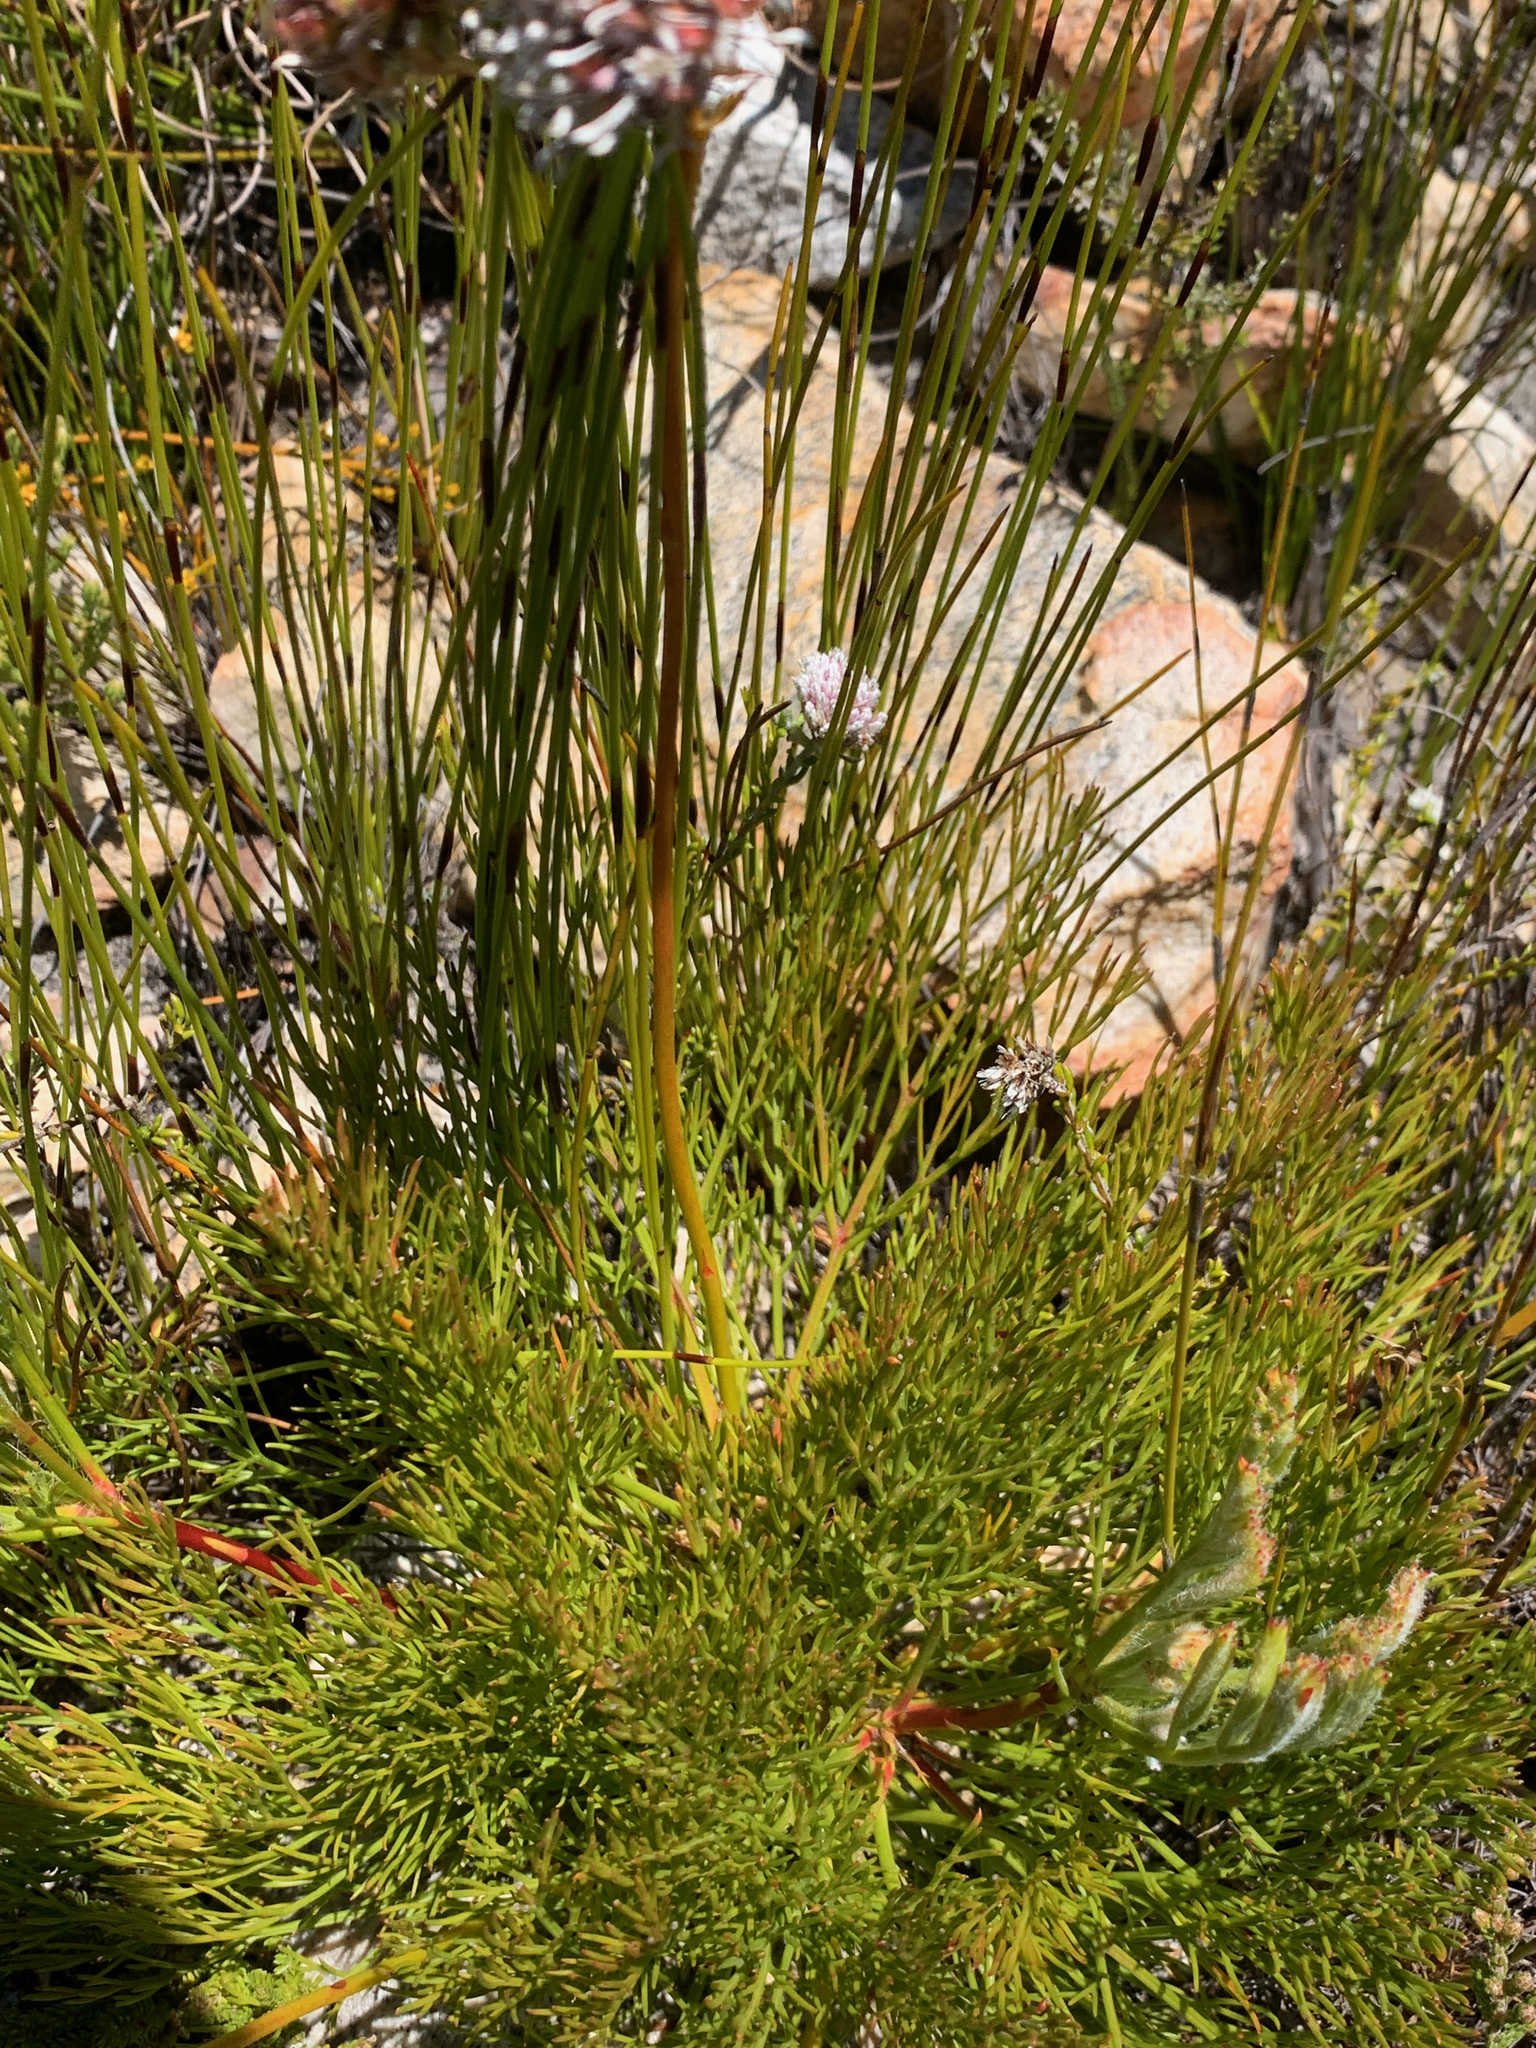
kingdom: Plantae
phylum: Tracheophyta
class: Magnoliopsida
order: Proteales
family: Proteaceae
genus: Serruria
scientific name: Serruria elongata
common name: Long-stalk spiderhead
